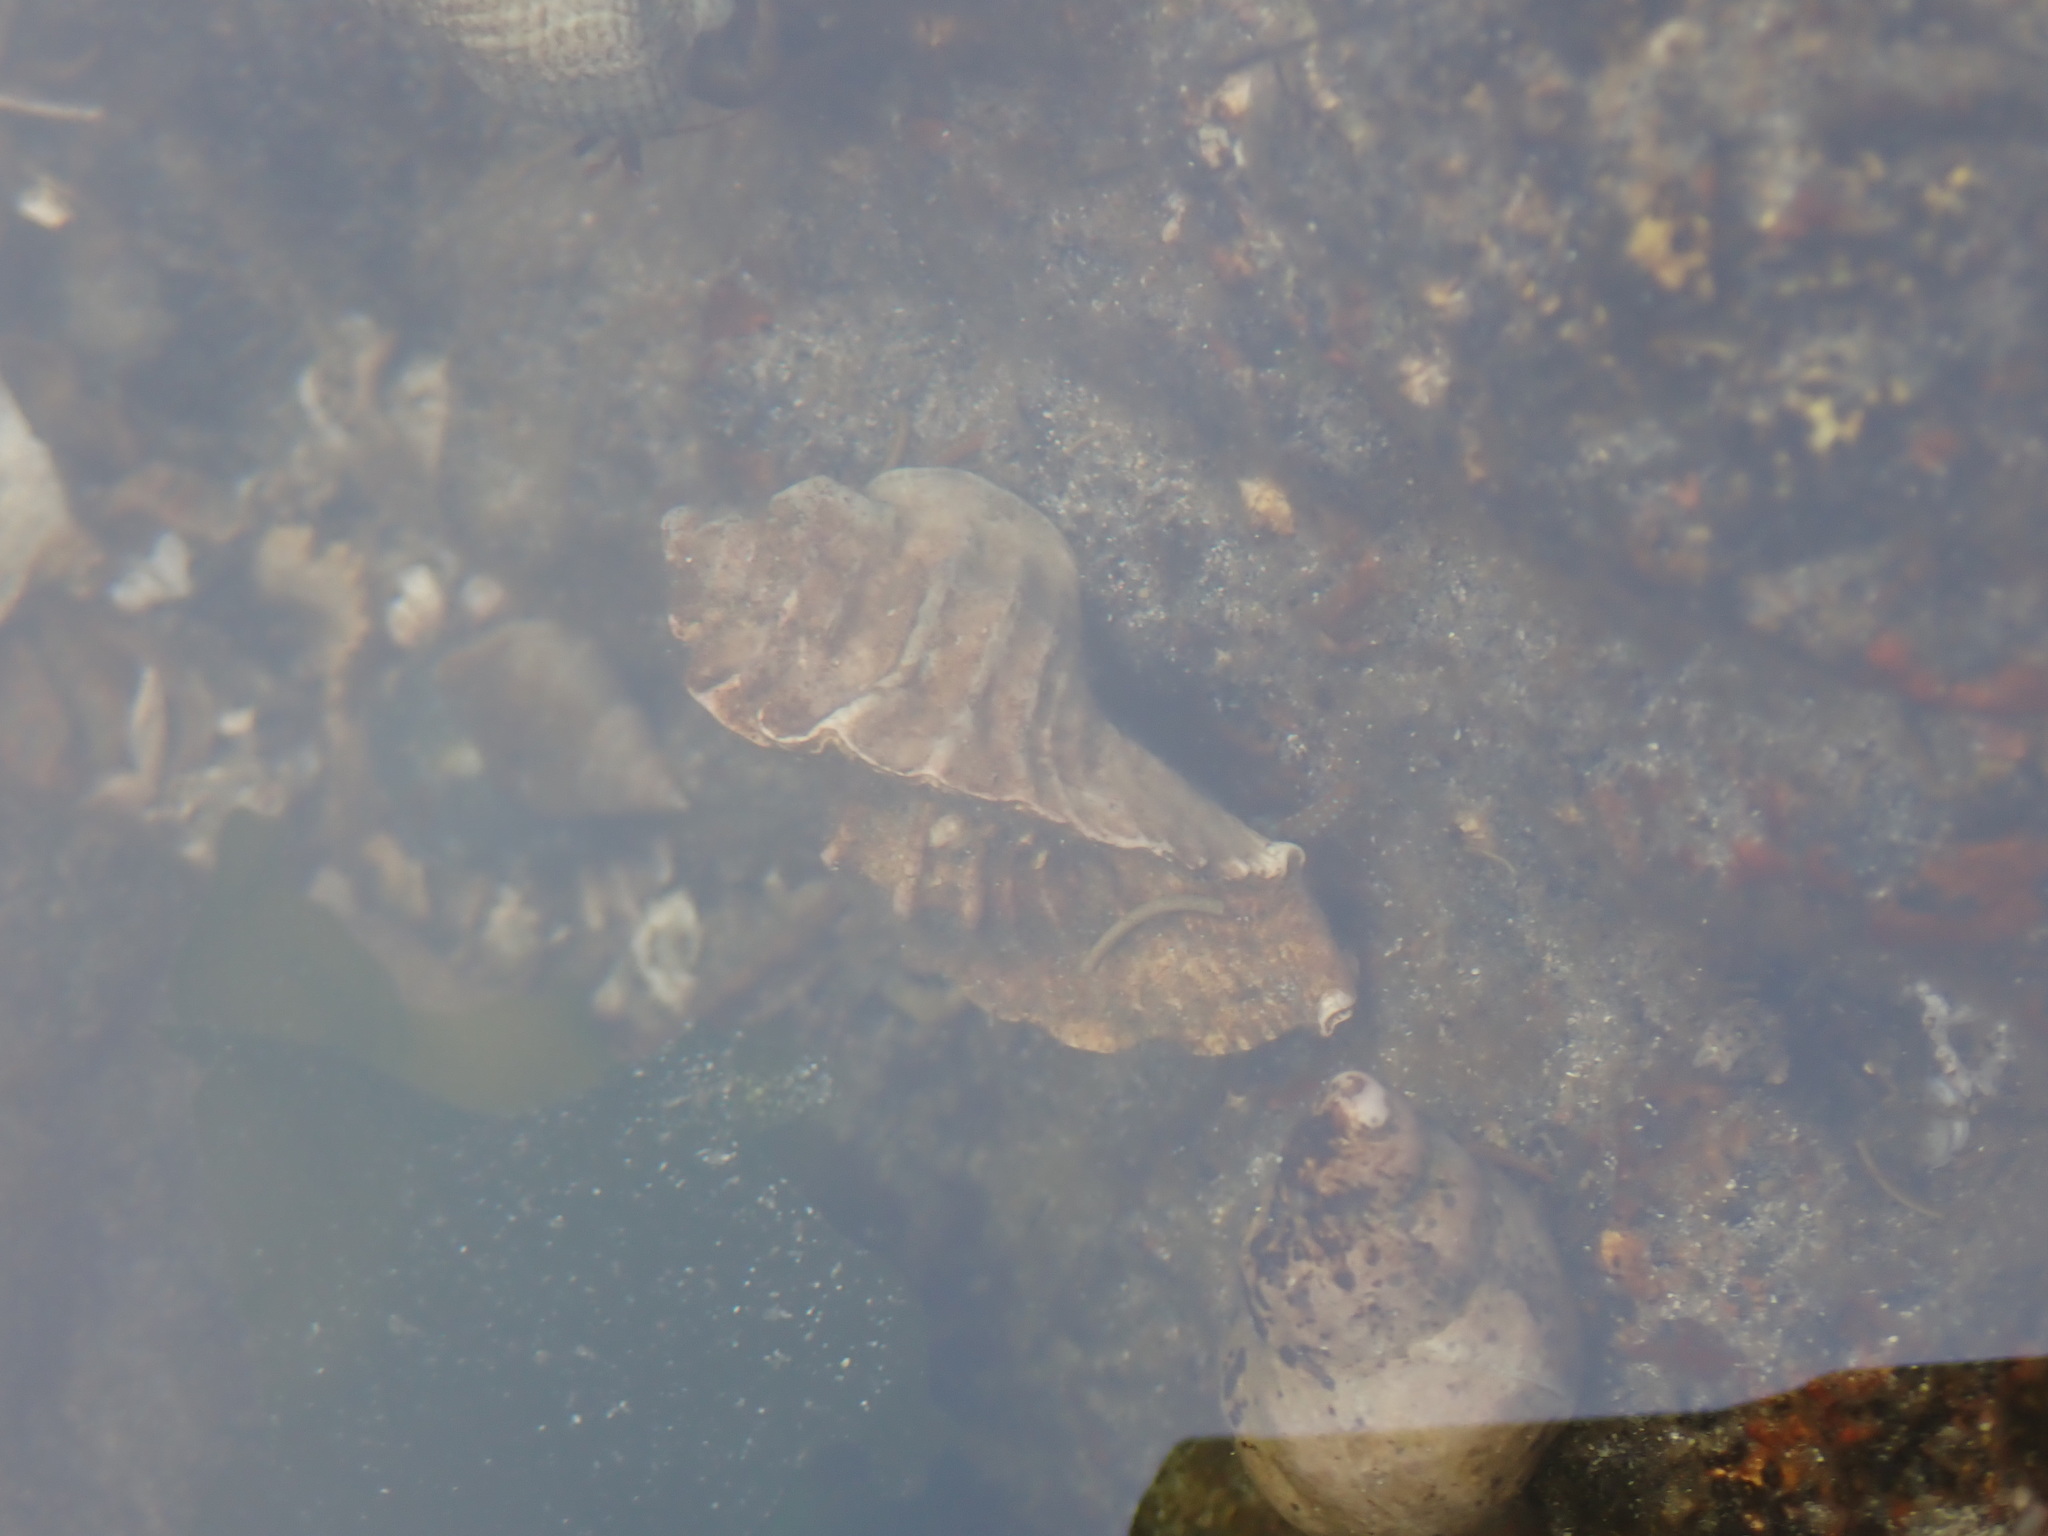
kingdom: Animalia
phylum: Mollusca
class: Gastropoda
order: Neogastropoda
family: Muricidae
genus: Ceratostoma
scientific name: Ceratostoma foliatum
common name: Foliate thorn purpura
